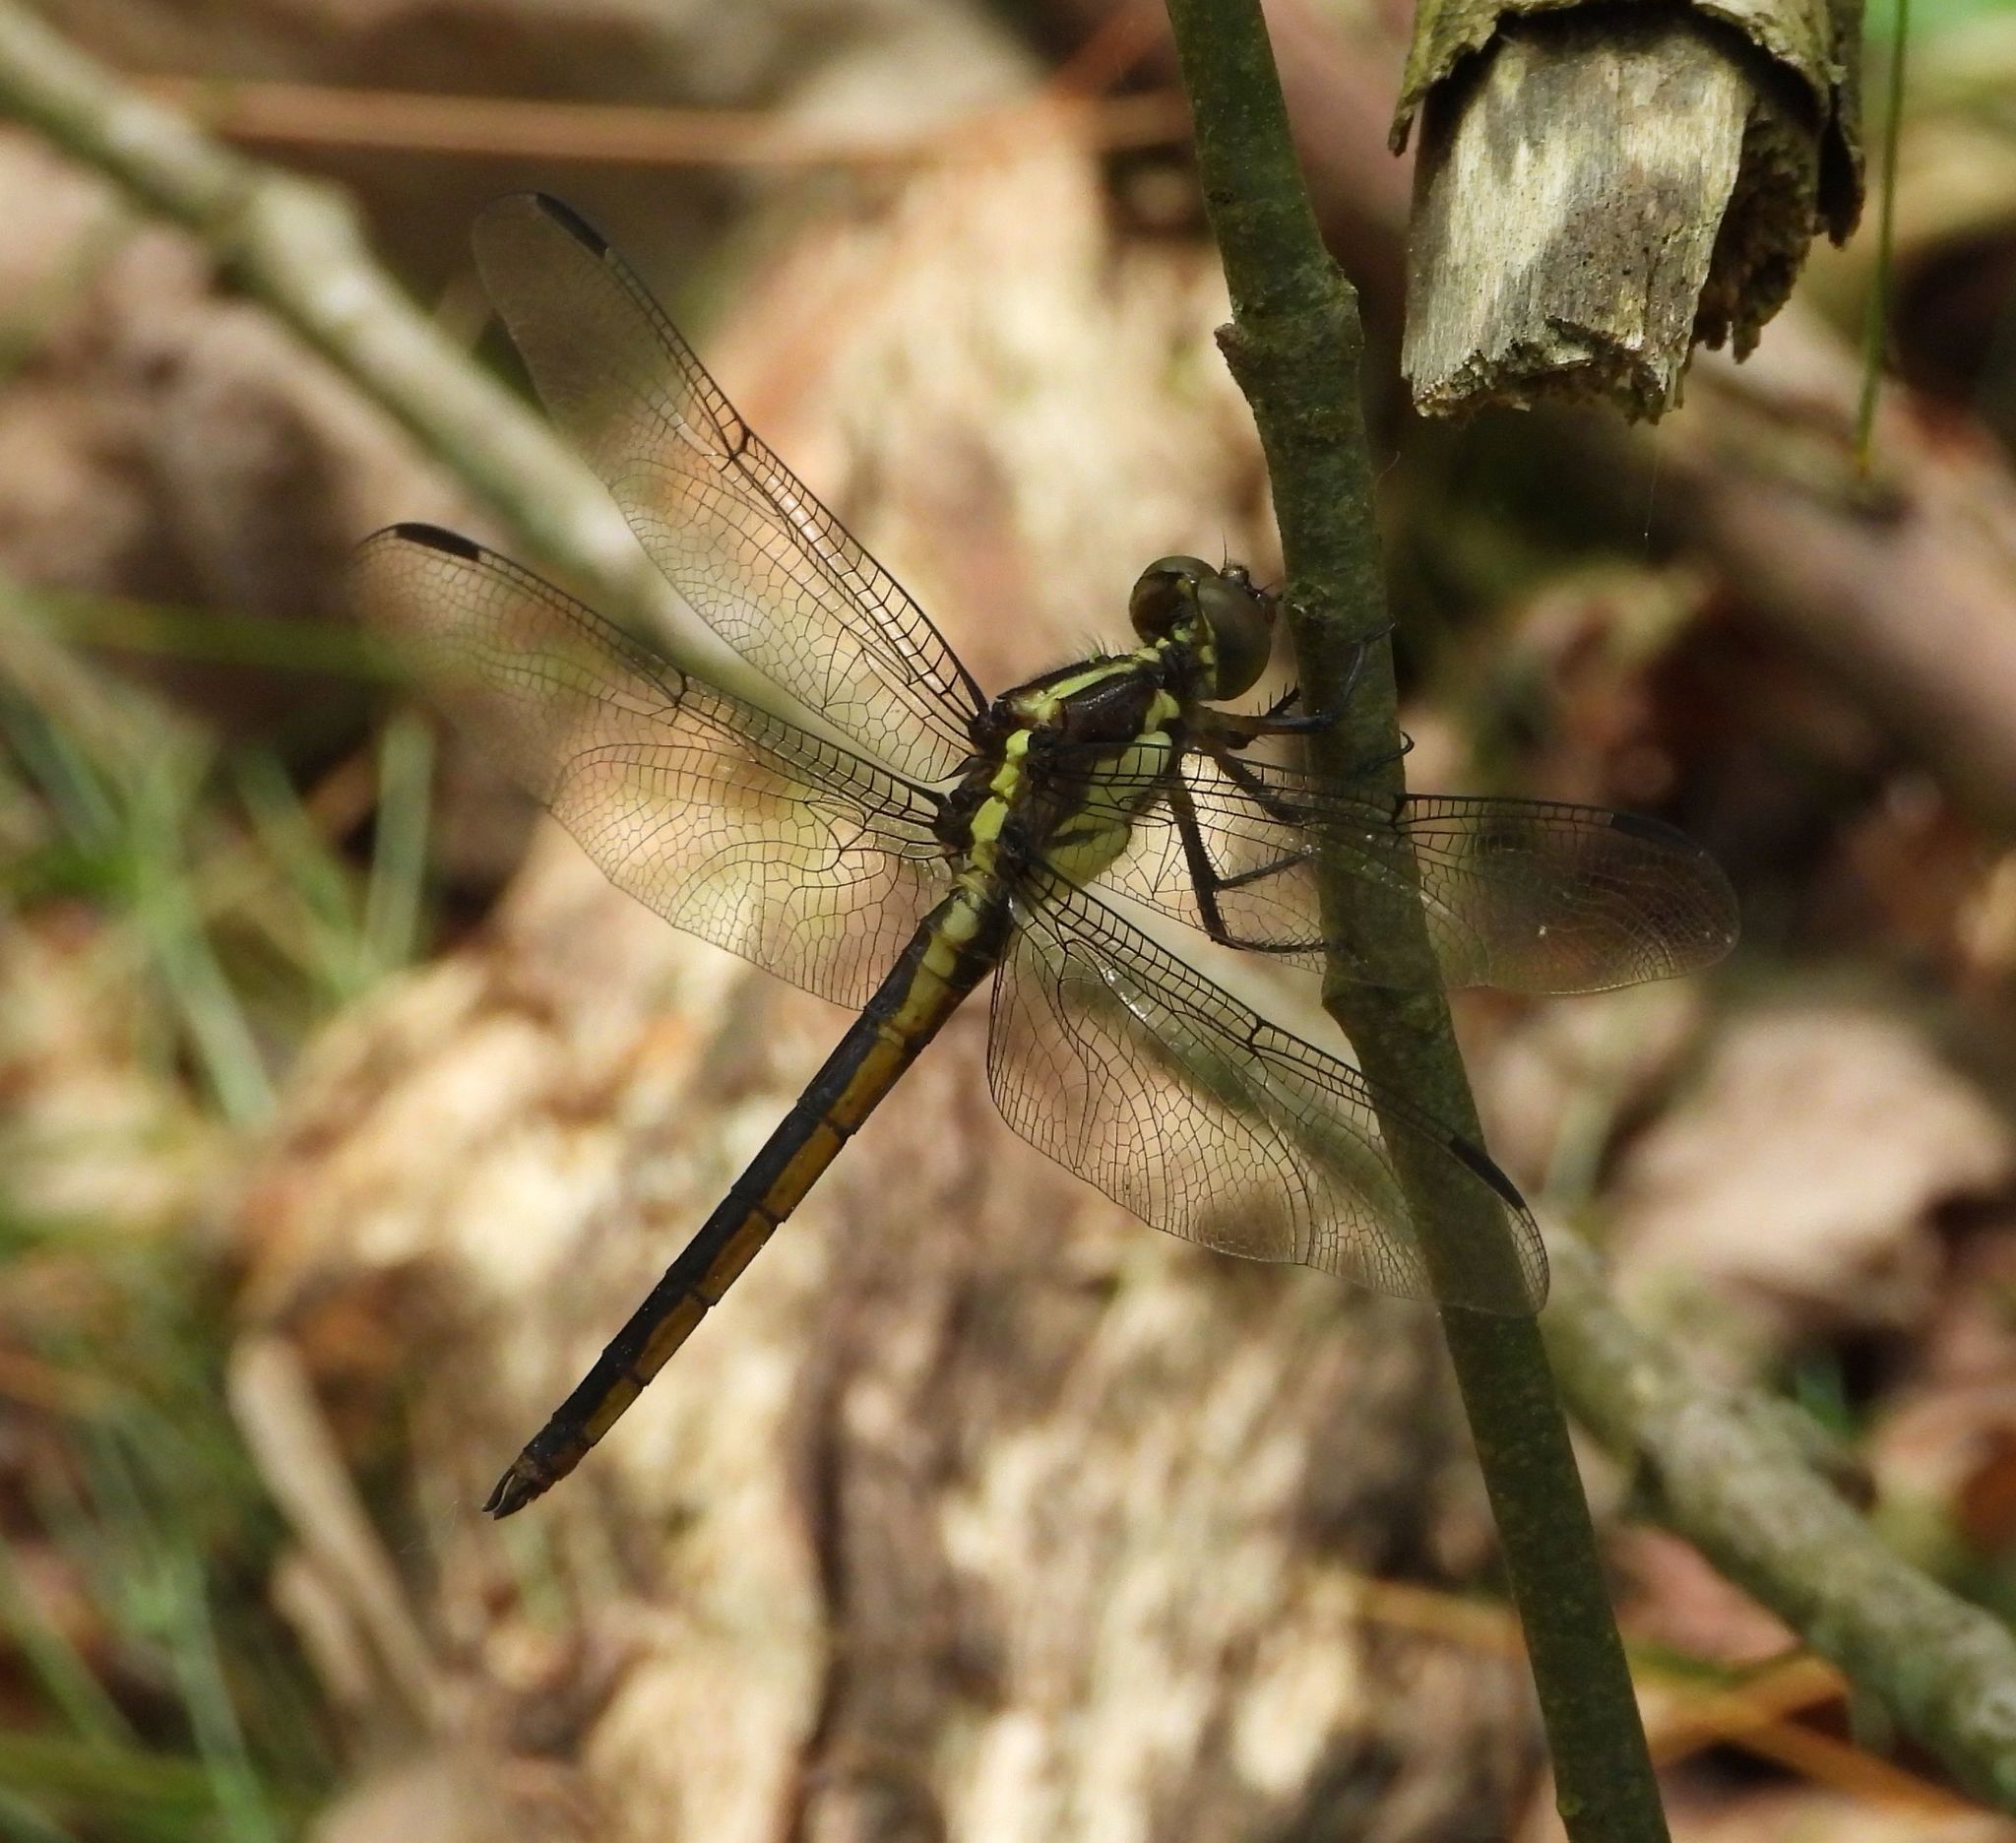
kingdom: Animalia
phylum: Arthropoda
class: Insecta
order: Odonata
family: Libellulidae
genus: Libellula
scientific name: Libellula incesta
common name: Slaty skimmer
